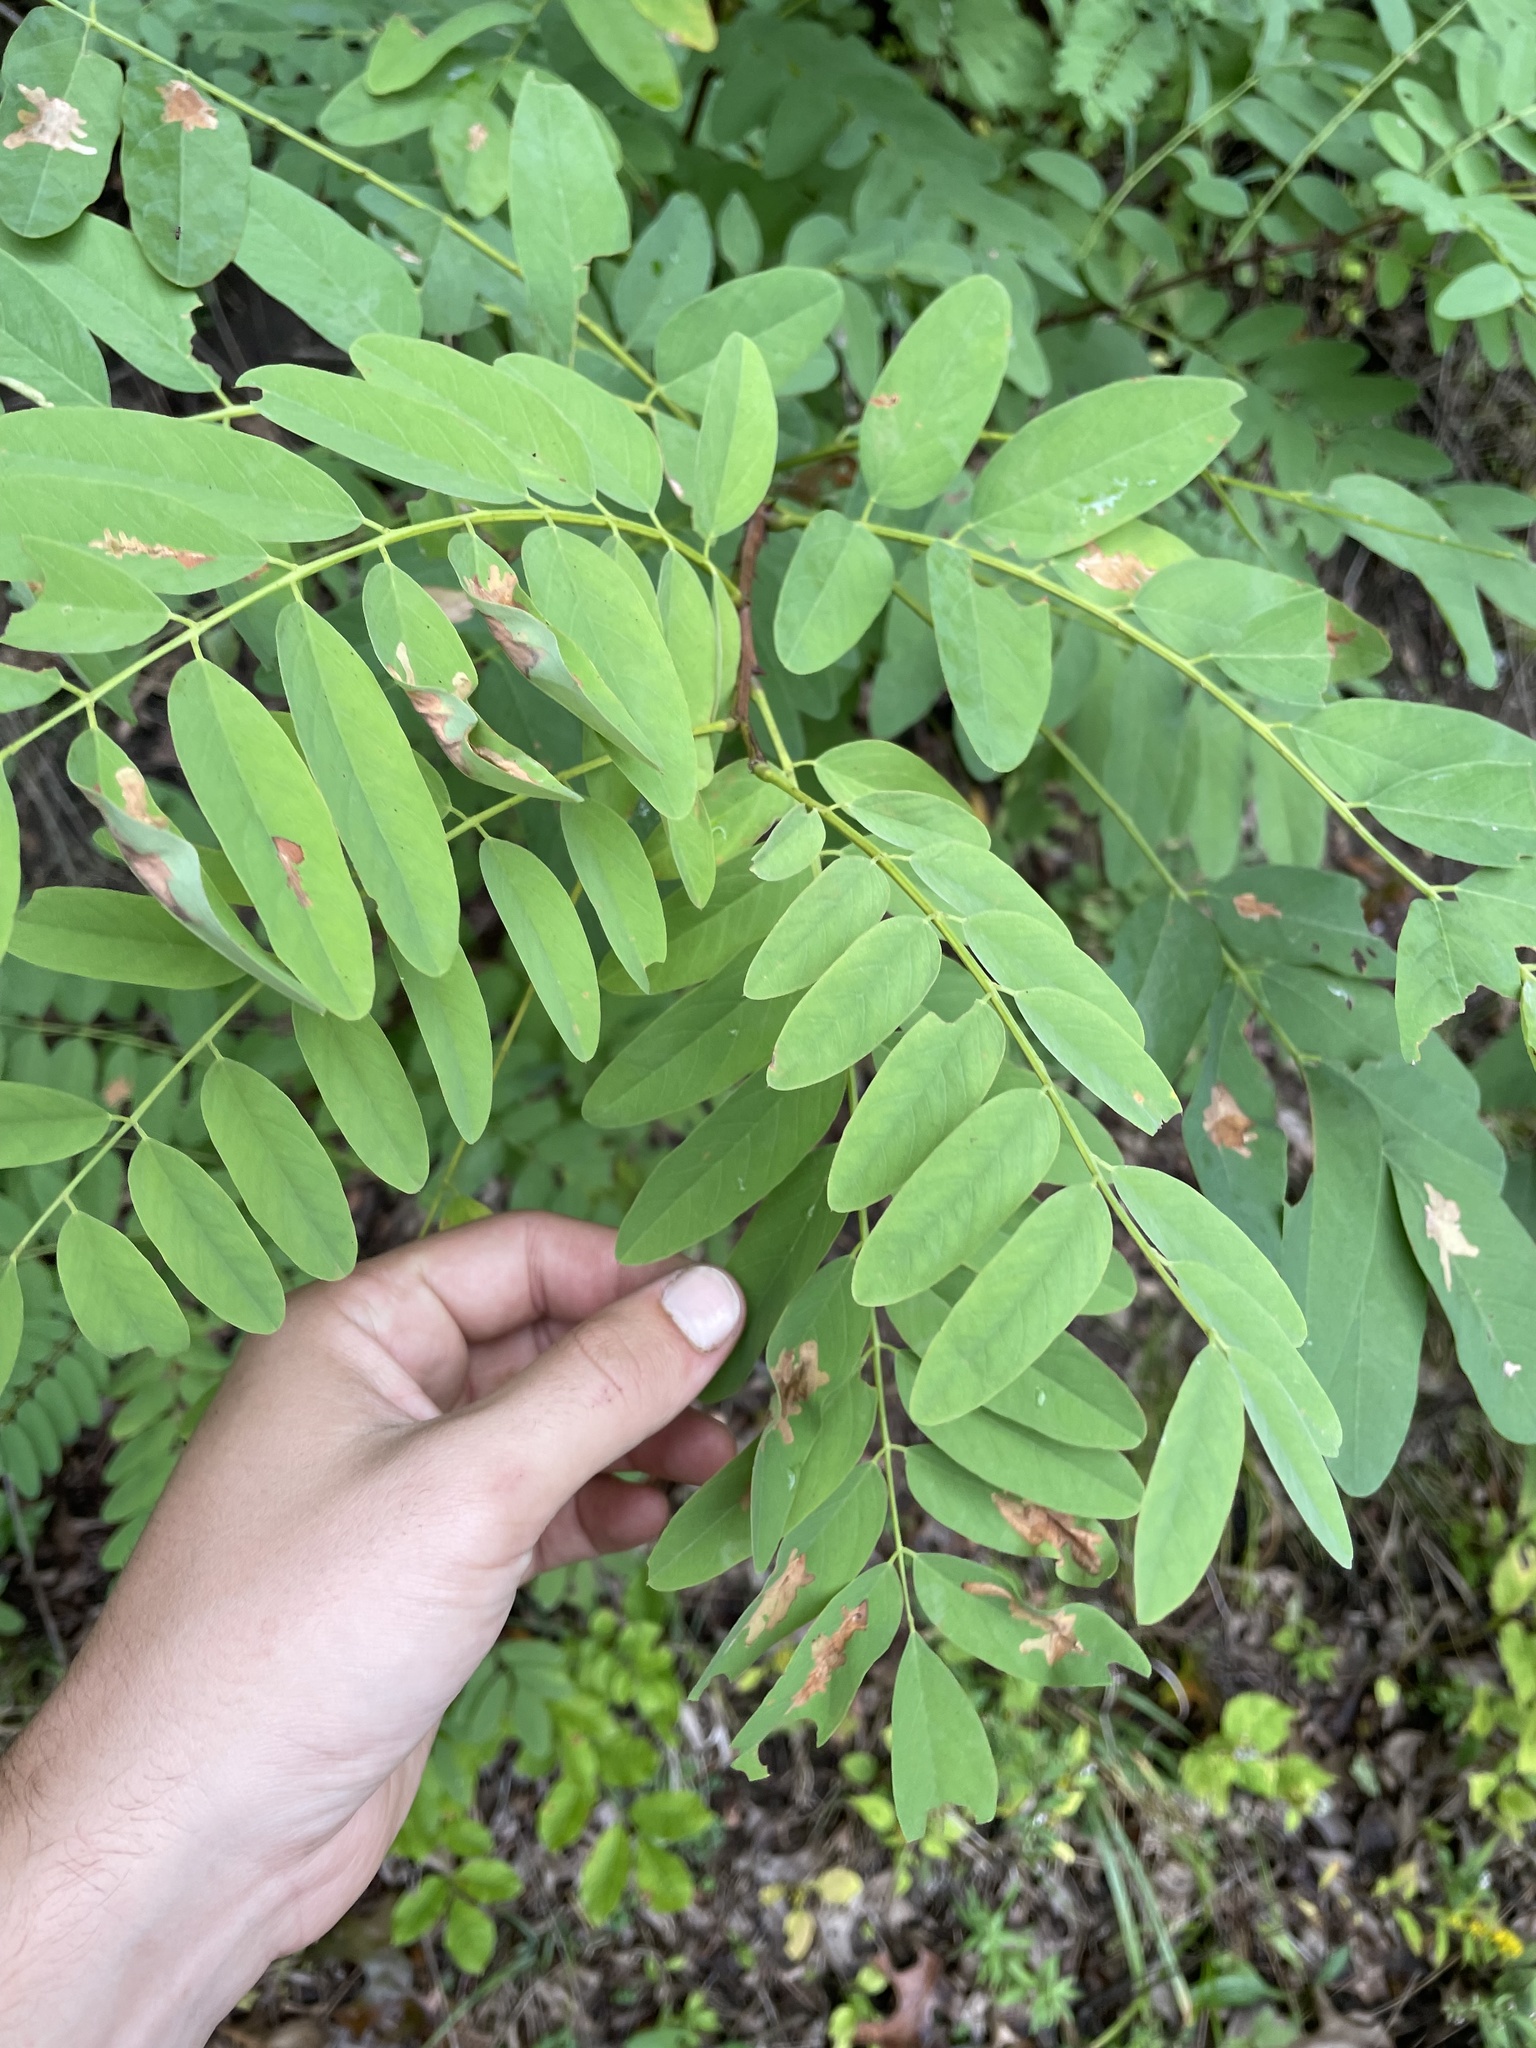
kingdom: Animalia
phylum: Arthropoda
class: Insecta
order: Lepidoptera
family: Gracillariidae
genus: Parectopa
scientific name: Parectopa robiniella
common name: Locust digitate leafminer
